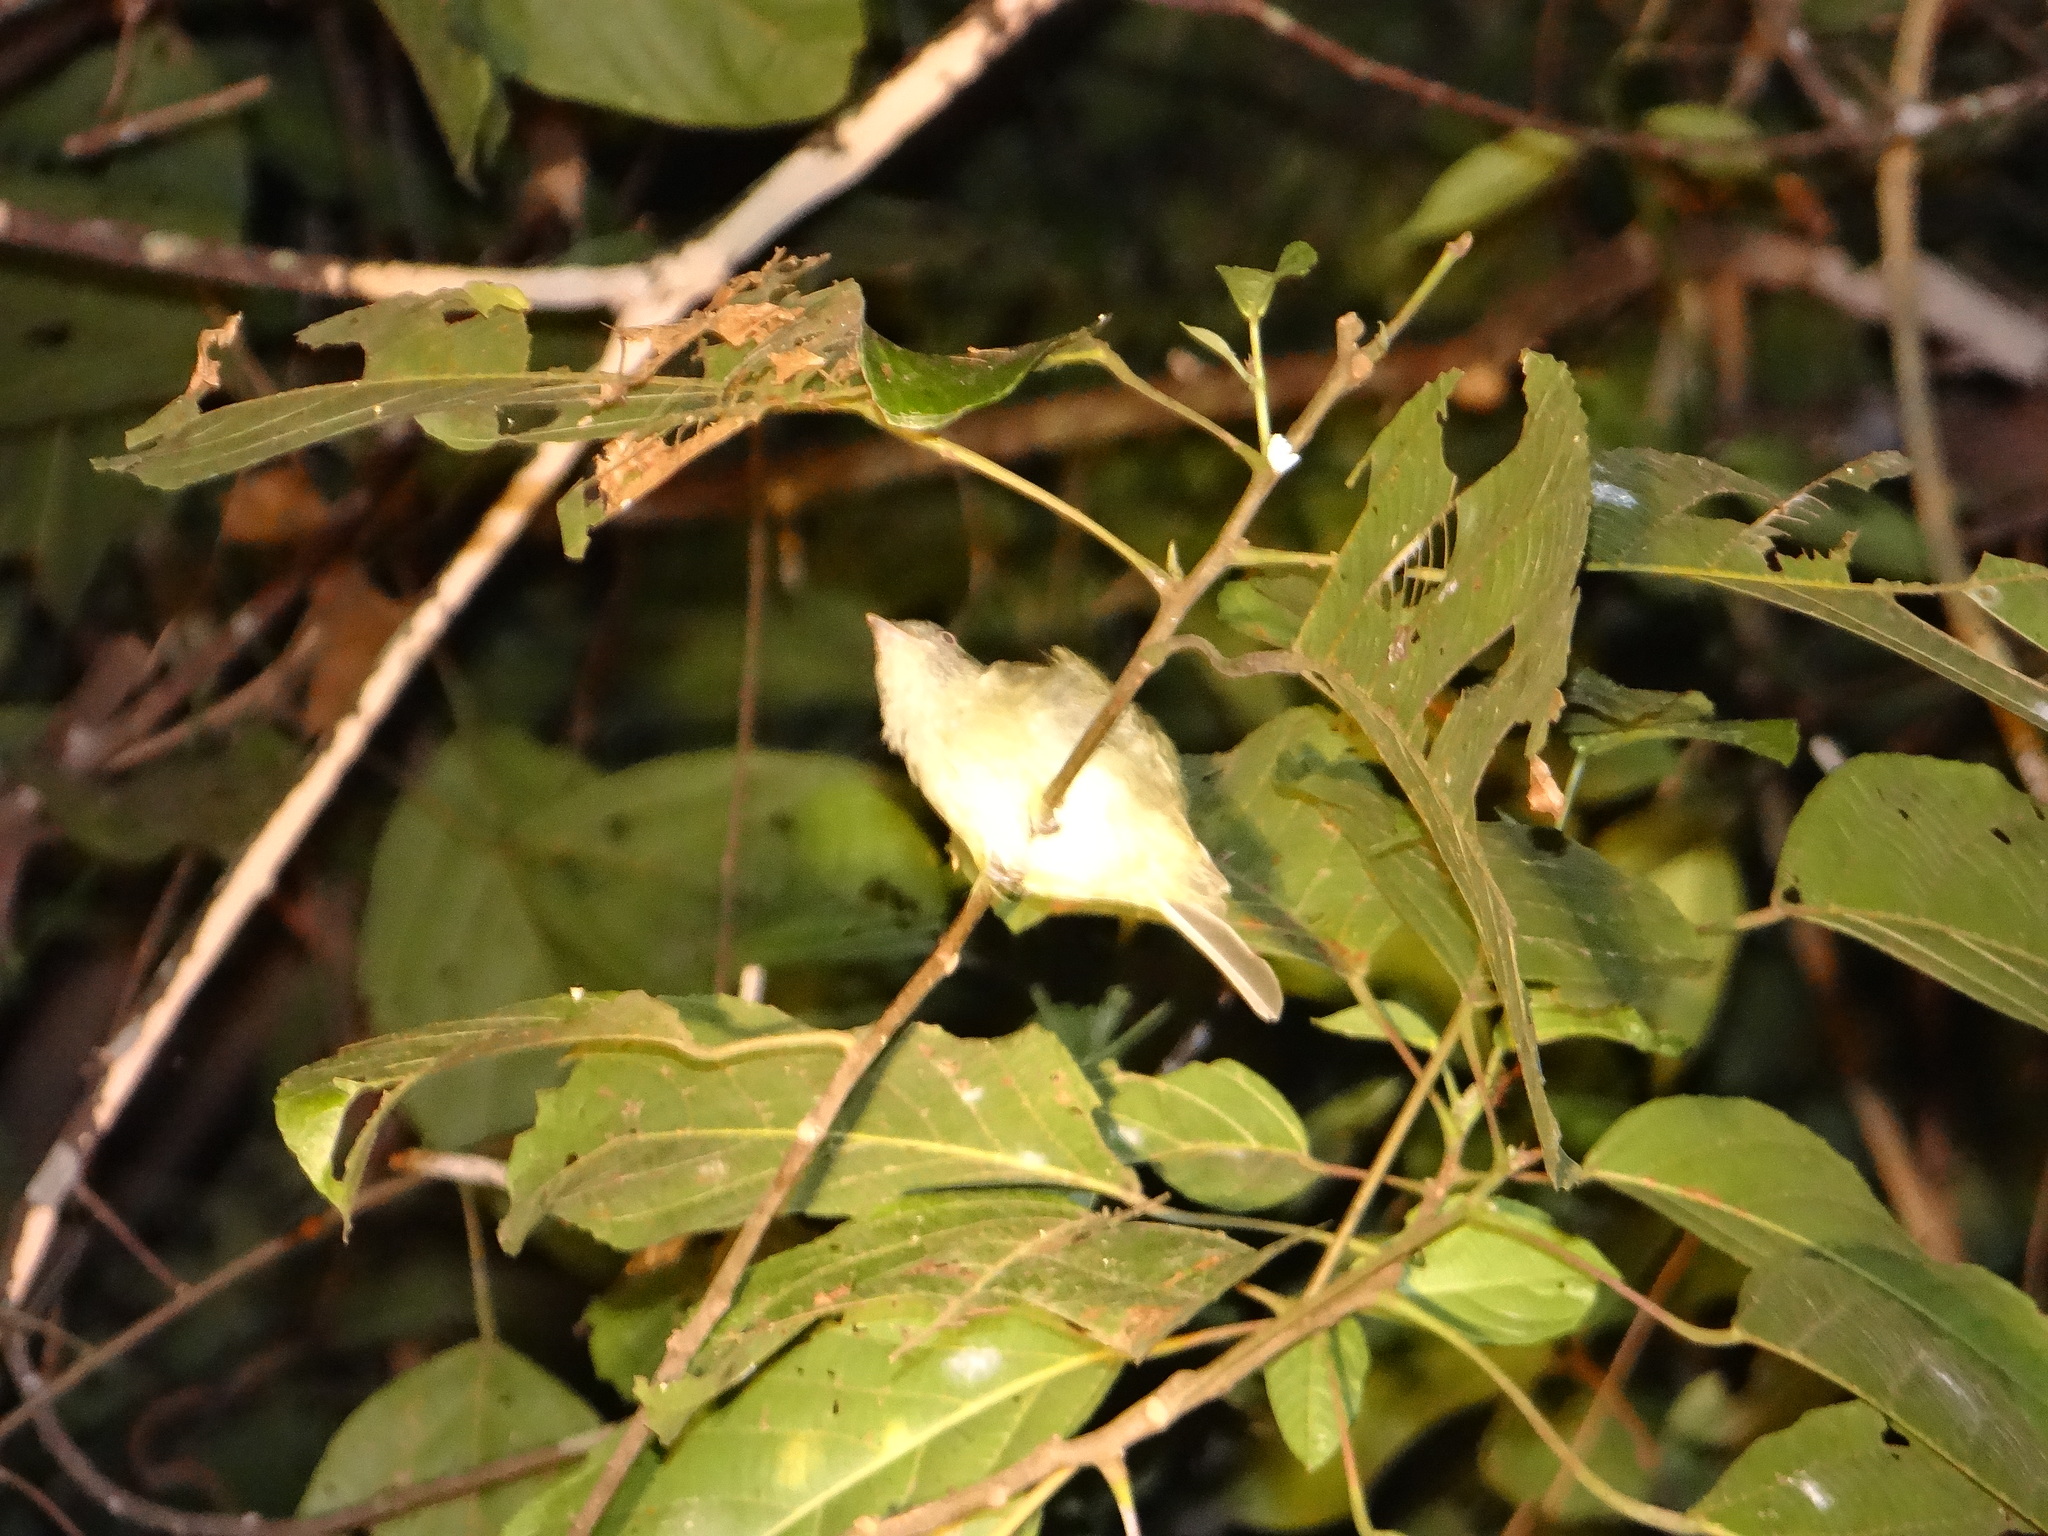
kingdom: Animalia
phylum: Chordata
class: Aves
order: Passeriformes
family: Pipridae
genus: Tyranneutes
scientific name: Tyranneutes stolzmanni
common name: Dwarf tyrant-manakin
